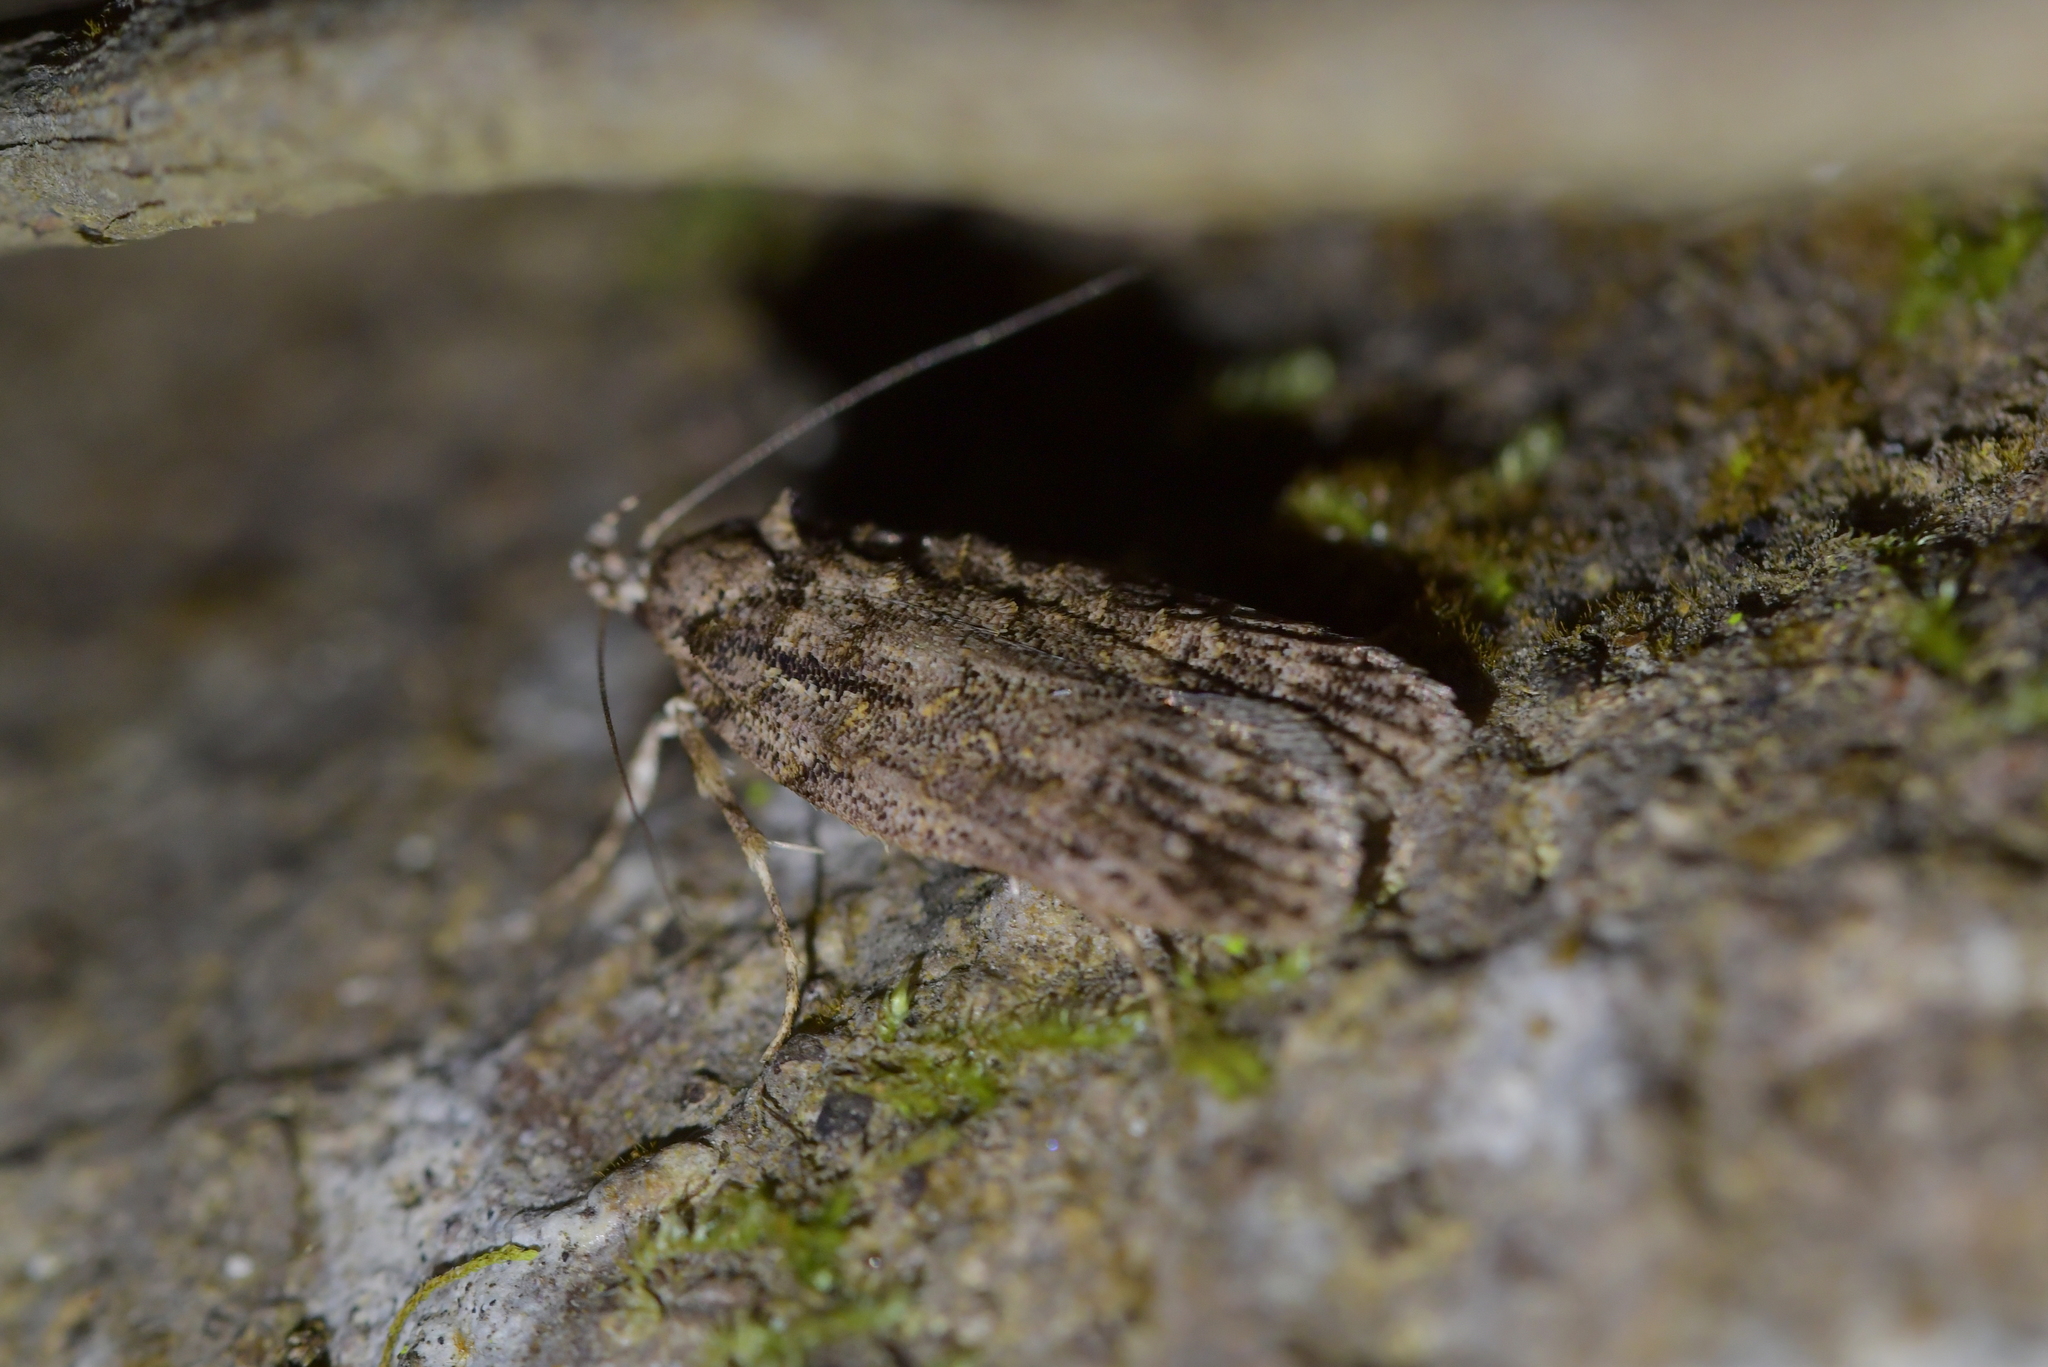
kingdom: Animalia
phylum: Arthropoda
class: Insecta
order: Lepidoptera
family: Oecophoridae
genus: Izatha
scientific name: Izatha attactella
